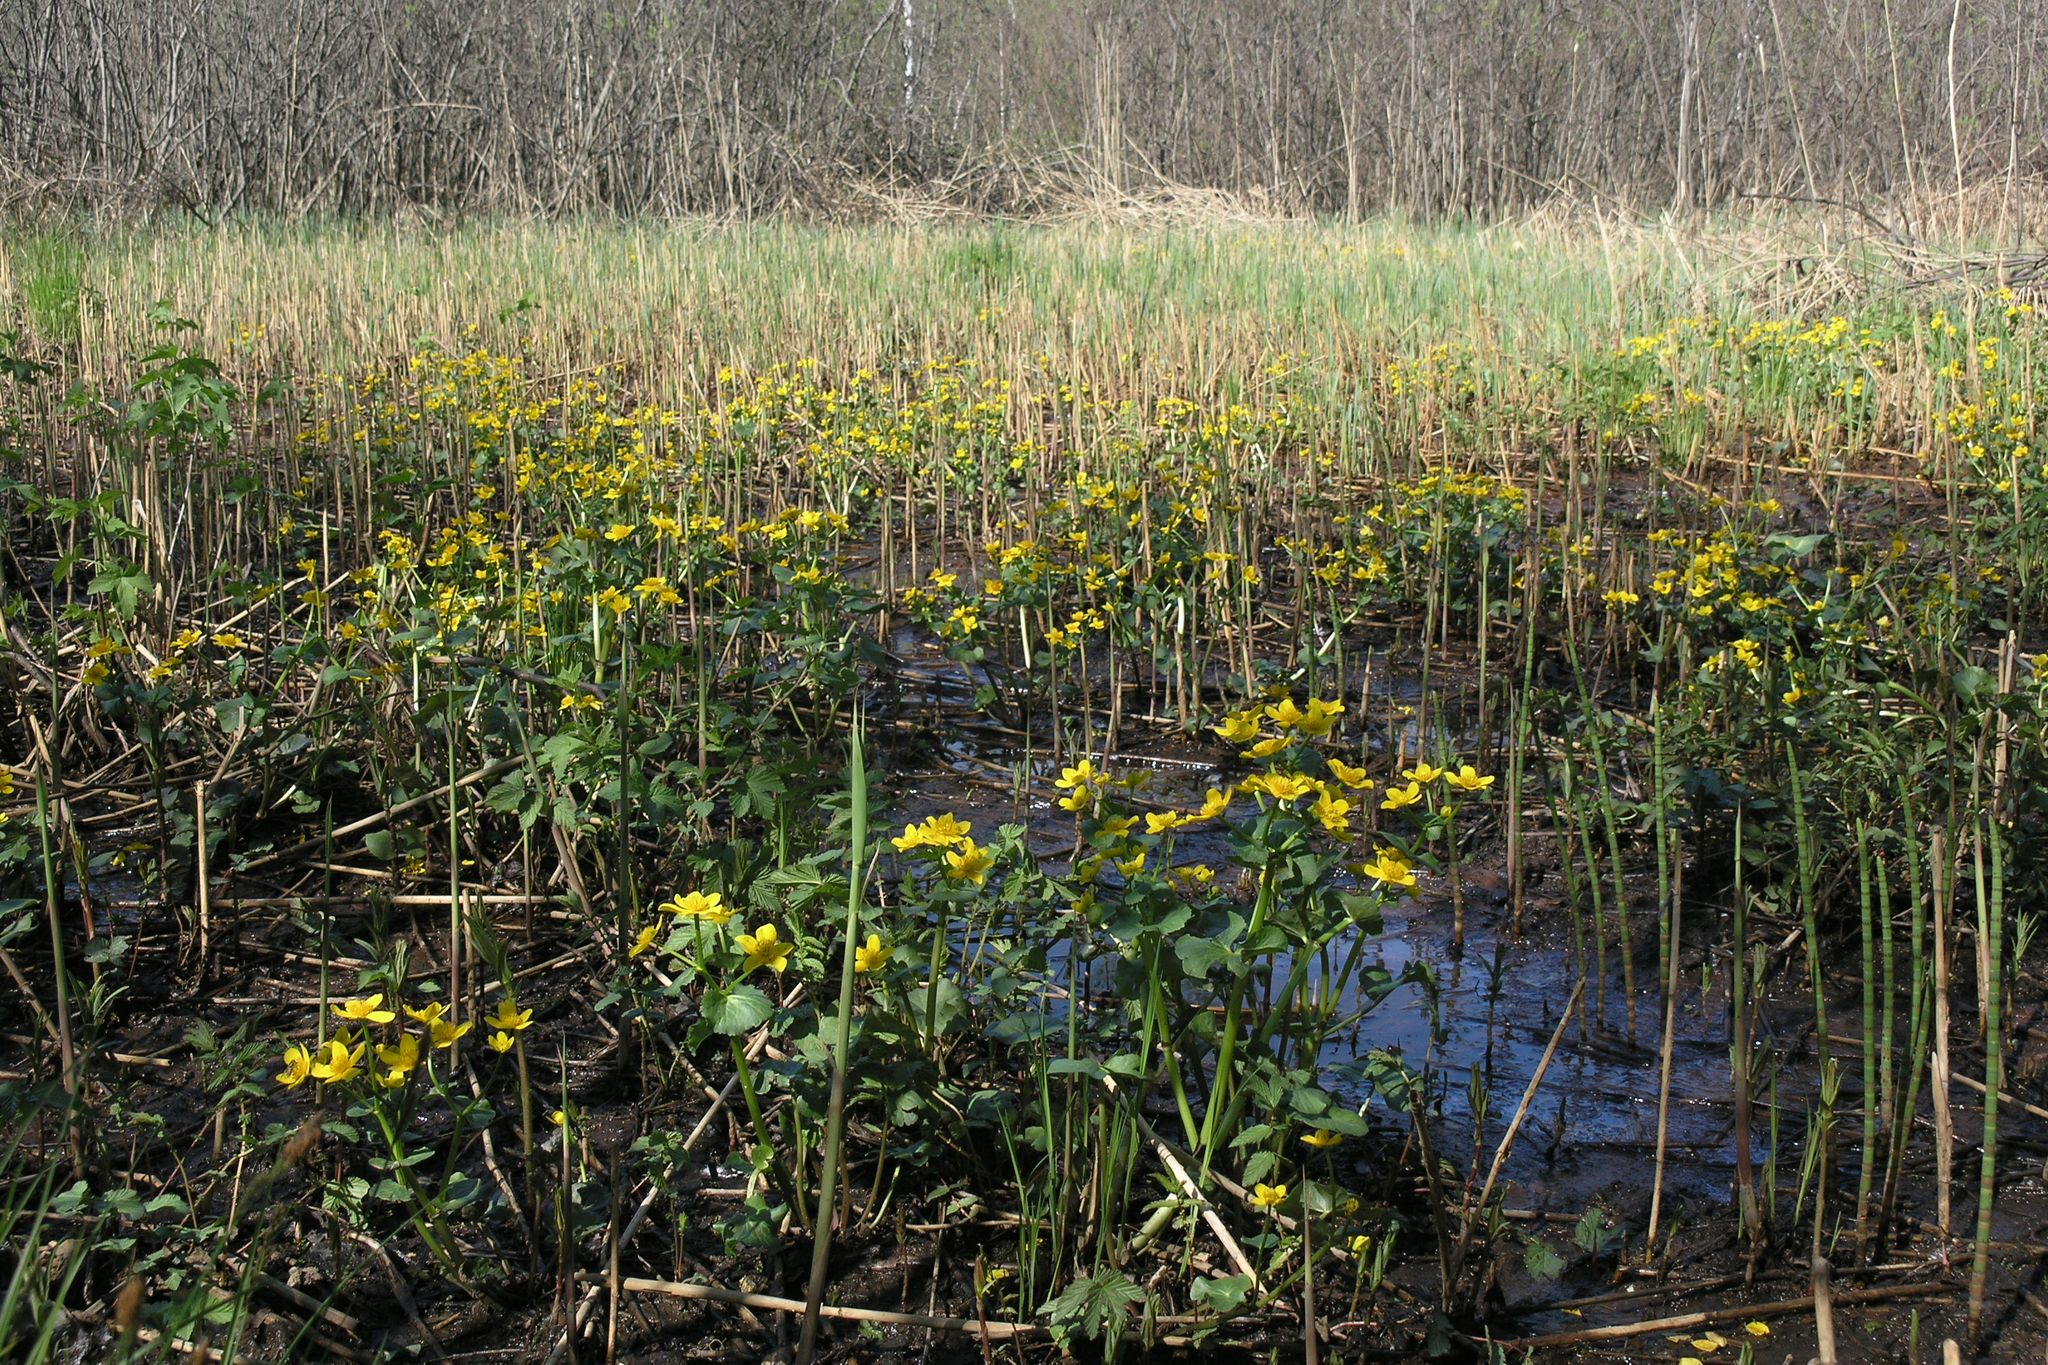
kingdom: Plantae
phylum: Tracheophyta
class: Magnoliopsida
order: Ranunculales
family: Ranunculaceae
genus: Caltha
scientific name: Caltha palustris
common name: Marsh marigold
